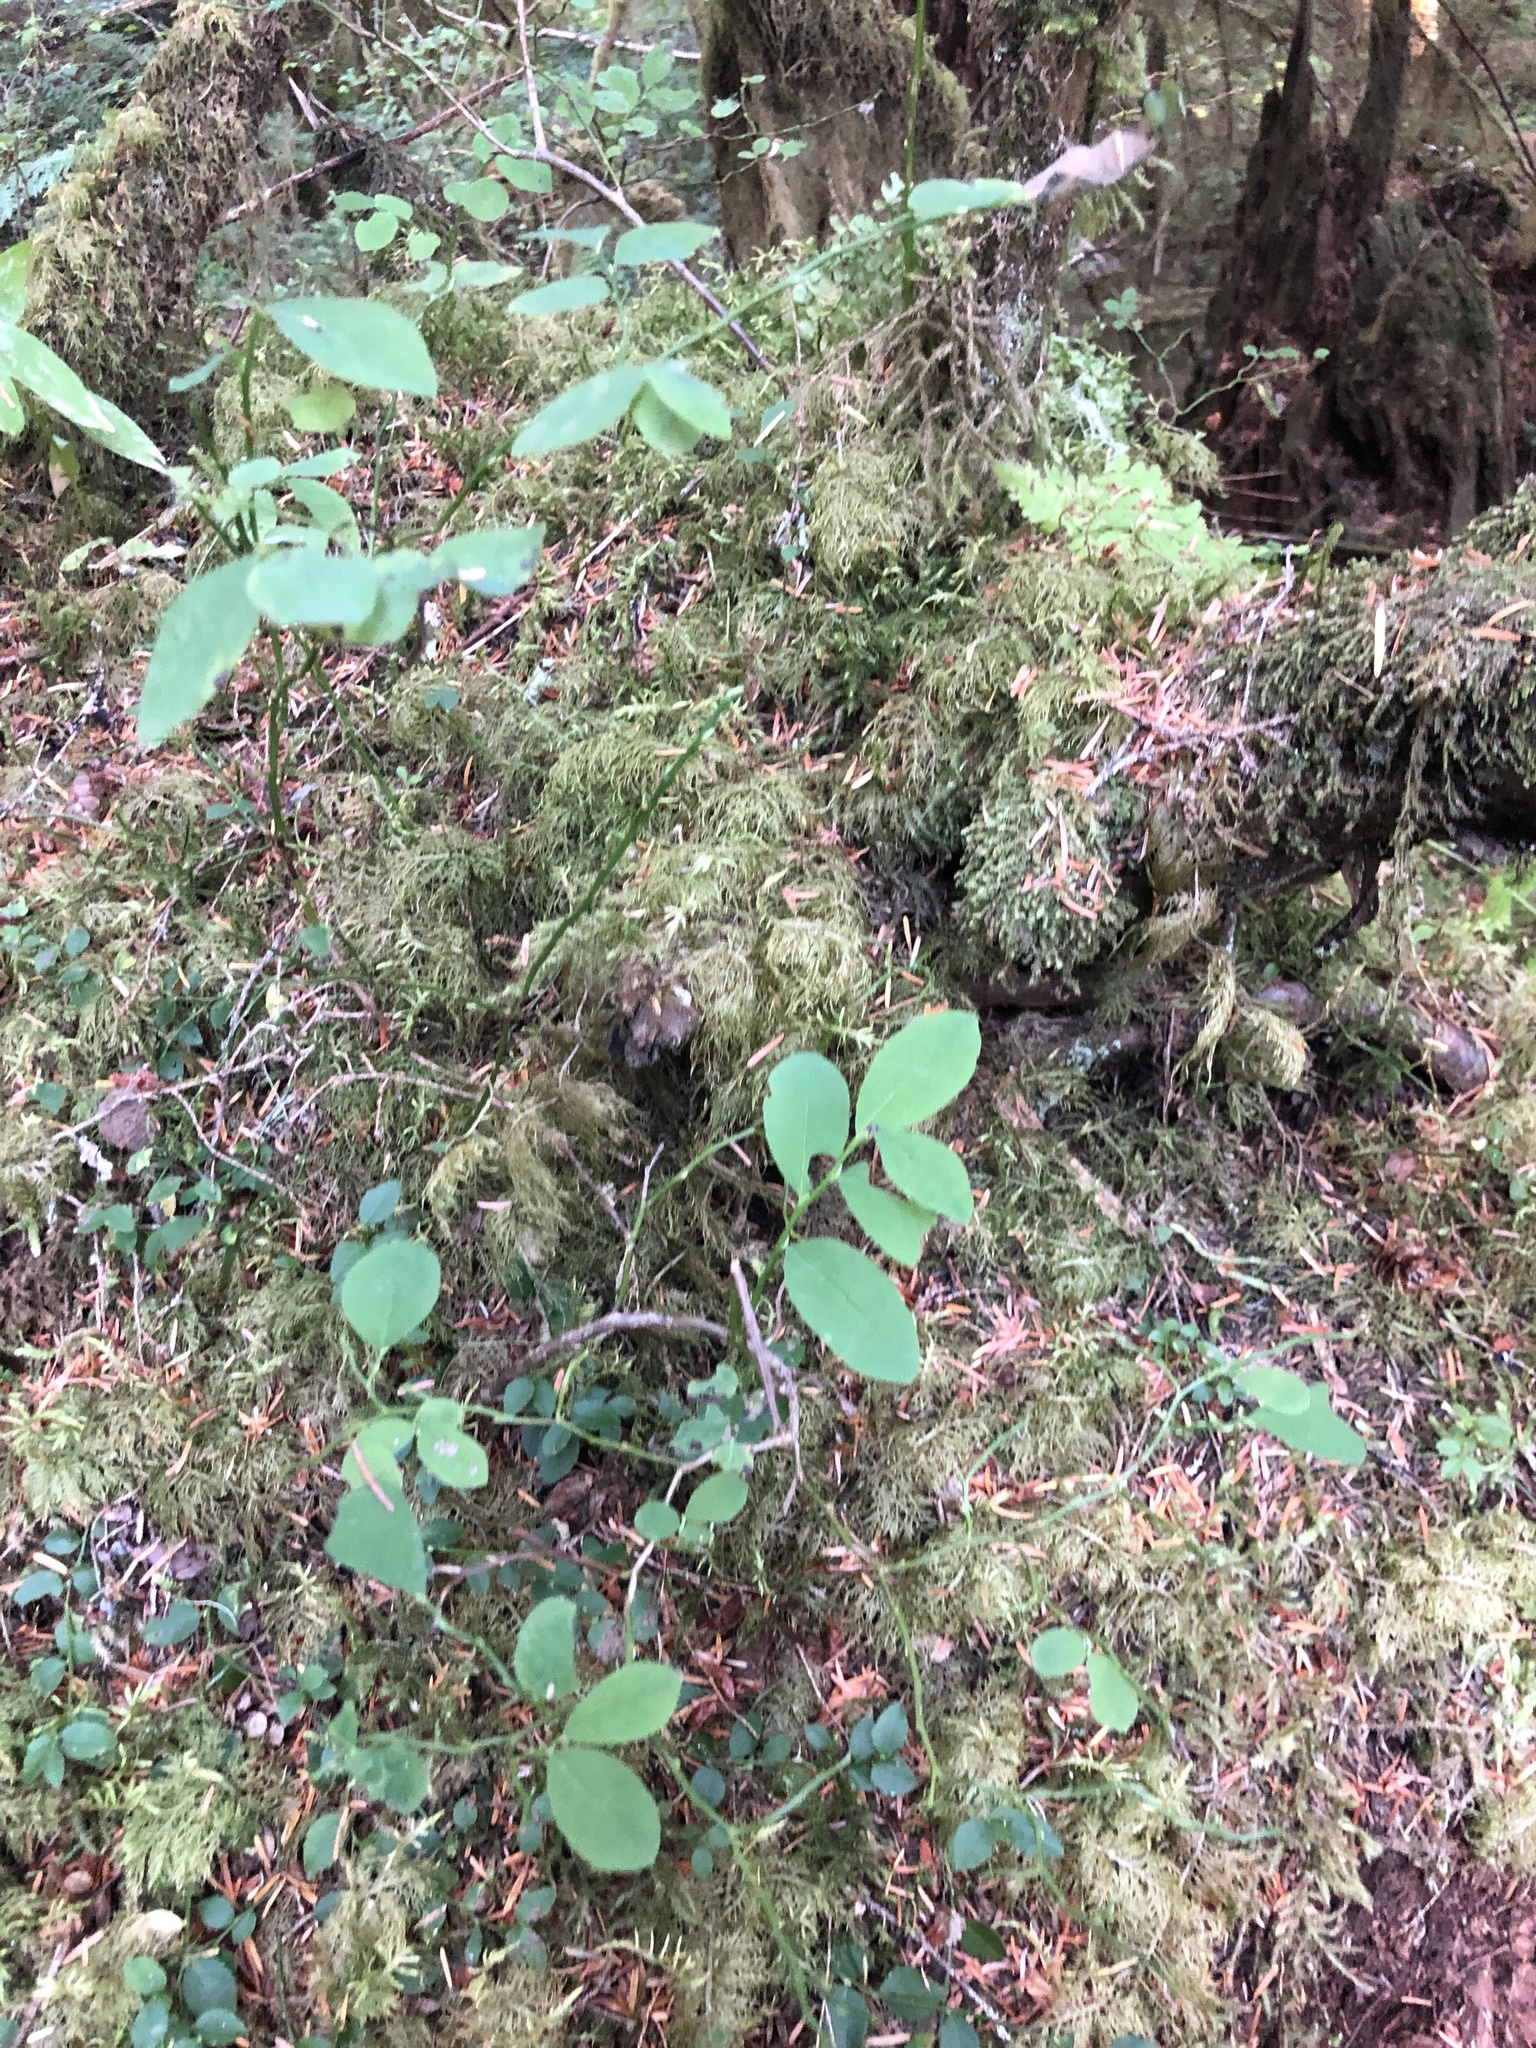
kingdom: Plantae
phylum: Tracheophyta
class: Magnoliopsida
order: Ericales
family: Ericaceae
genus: Vaccinium
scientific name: Vaccinium parvifolium
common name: Red-huckleberry
